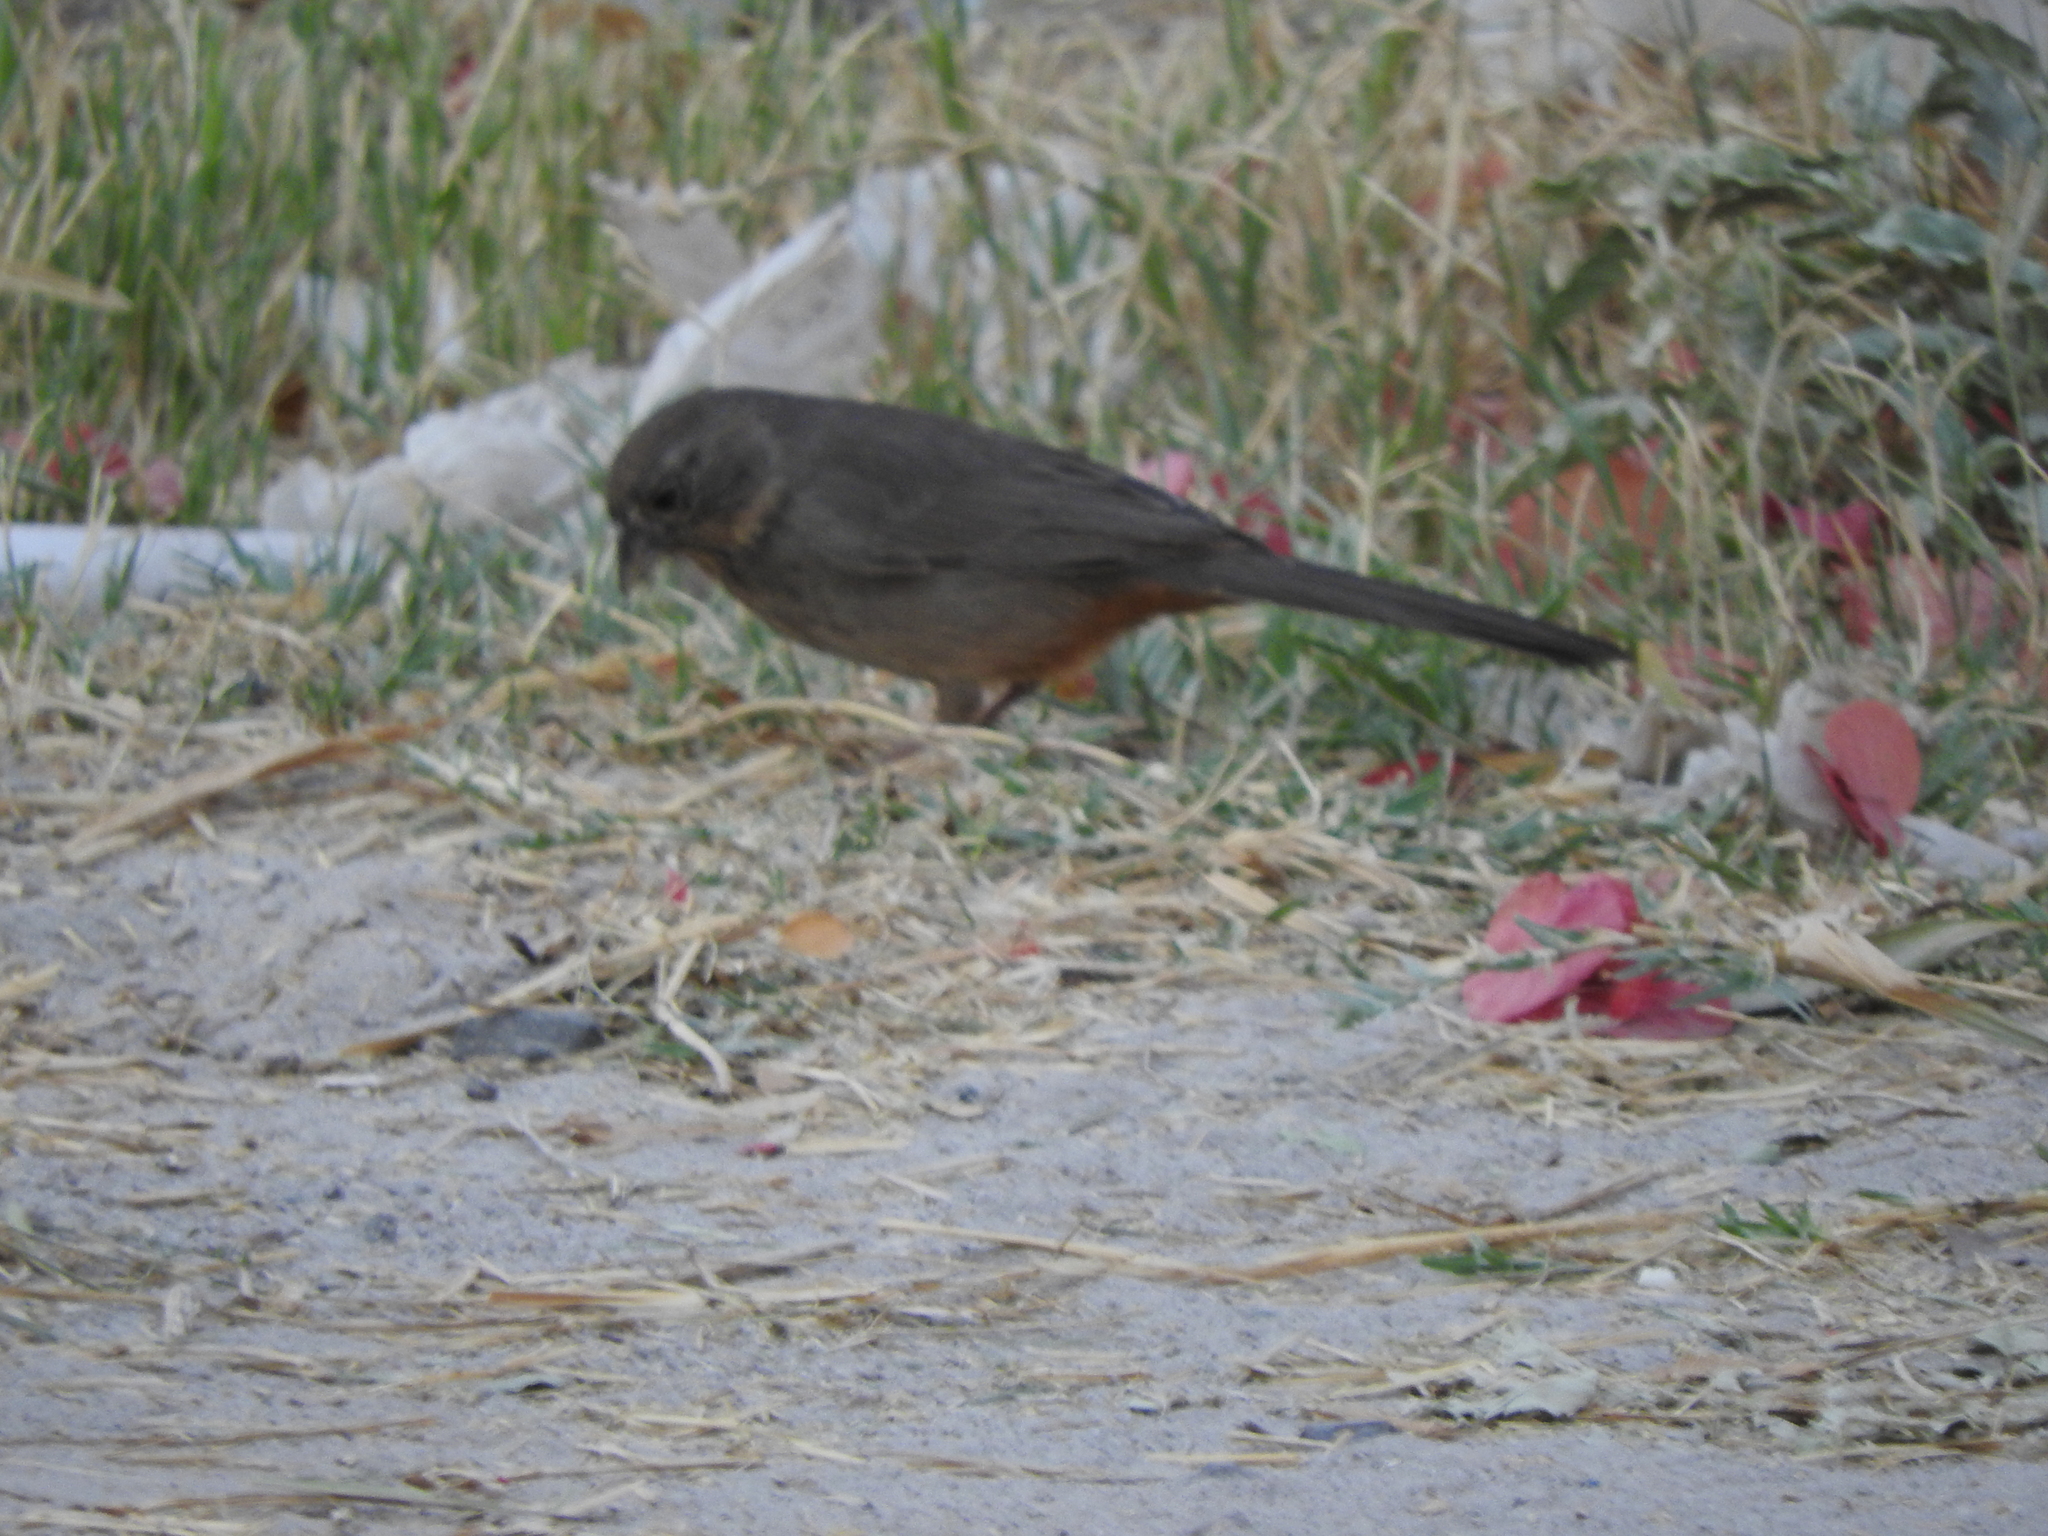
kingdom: Animalia
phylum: Chordata
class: Aves
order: Passeriformes
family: Passerellidae
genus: Melozone
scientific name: Melozone fusca
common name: Canyon towhee
